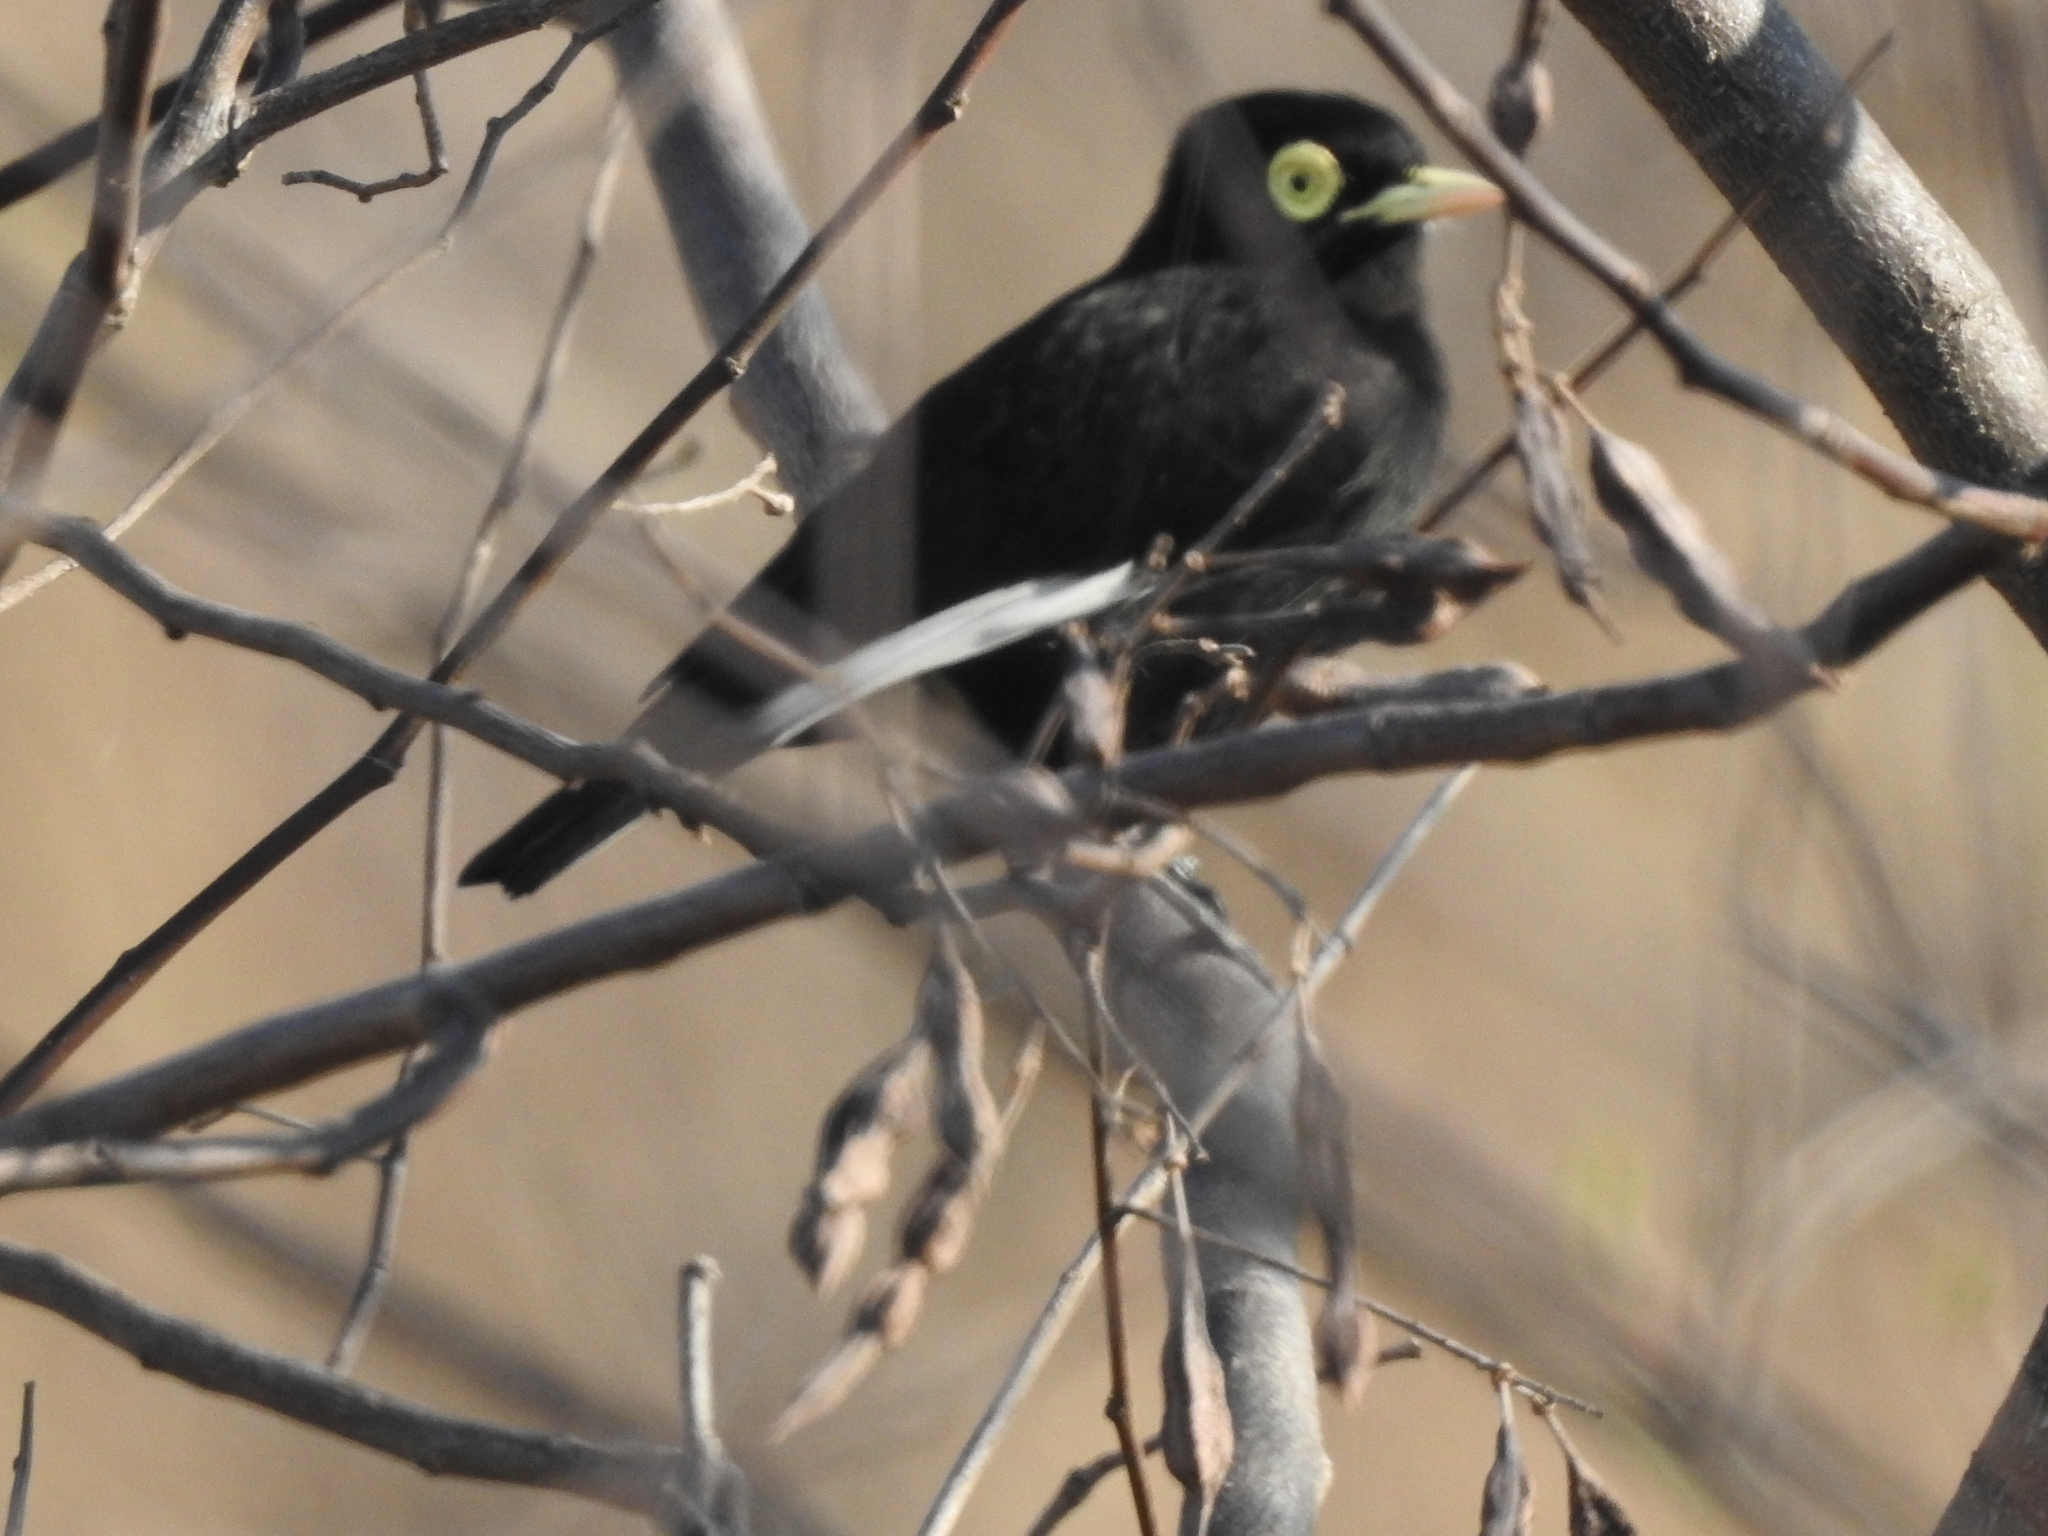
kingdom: Animalia
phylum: Chordata
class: Aves
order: Passeriformes
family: Tyrannidae
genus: Hymenops
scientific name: Hymenops perspicillatus
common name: Spectacled tyrant
